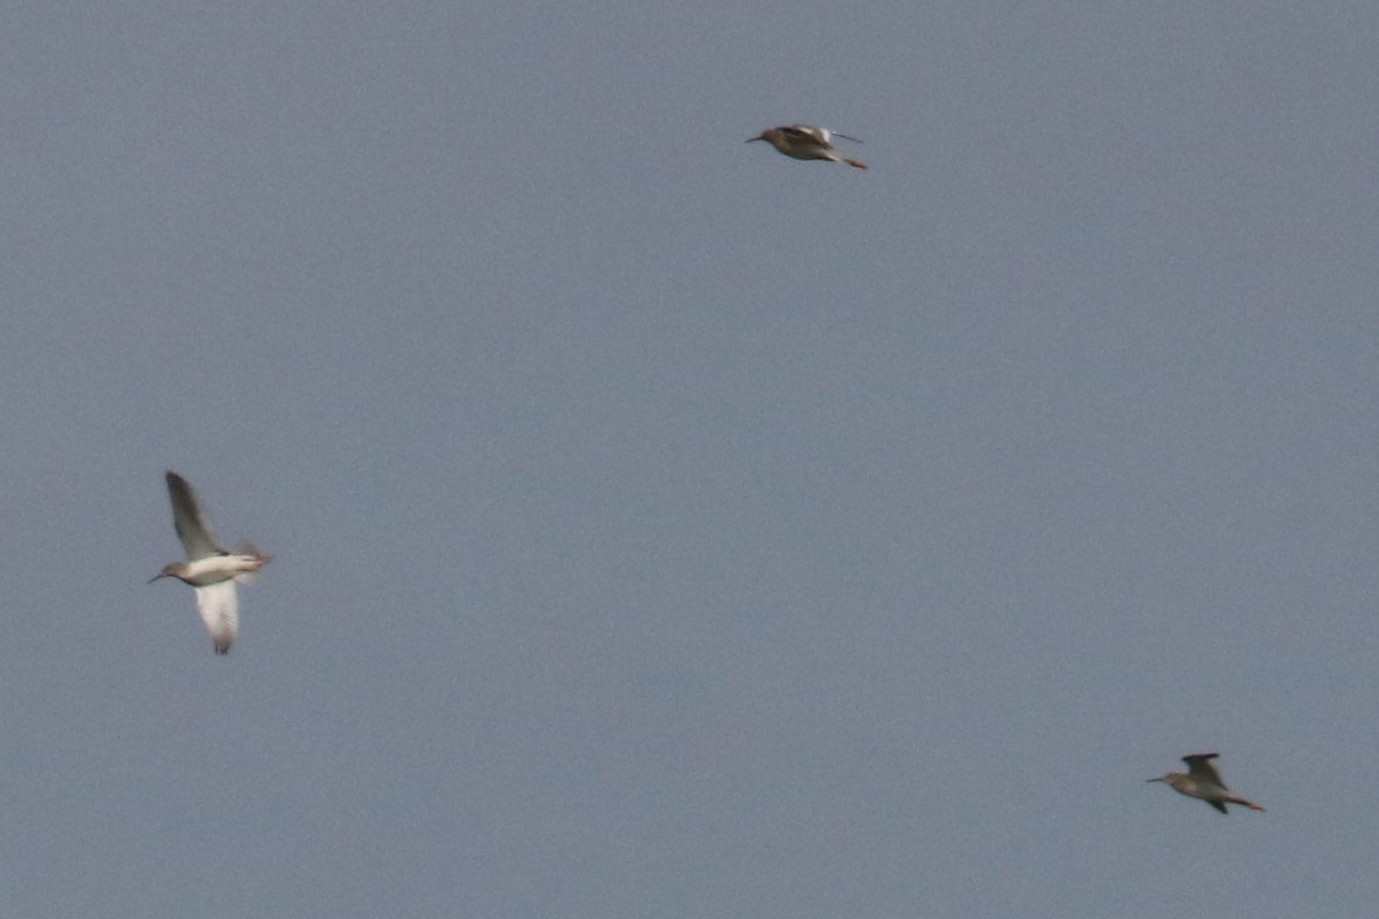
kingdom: Animalia
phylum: Chordata
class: Aves
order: Charadriiformes
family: Scolopacidae
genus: Tringa
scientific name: Tringa totanus
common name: Common redshank
